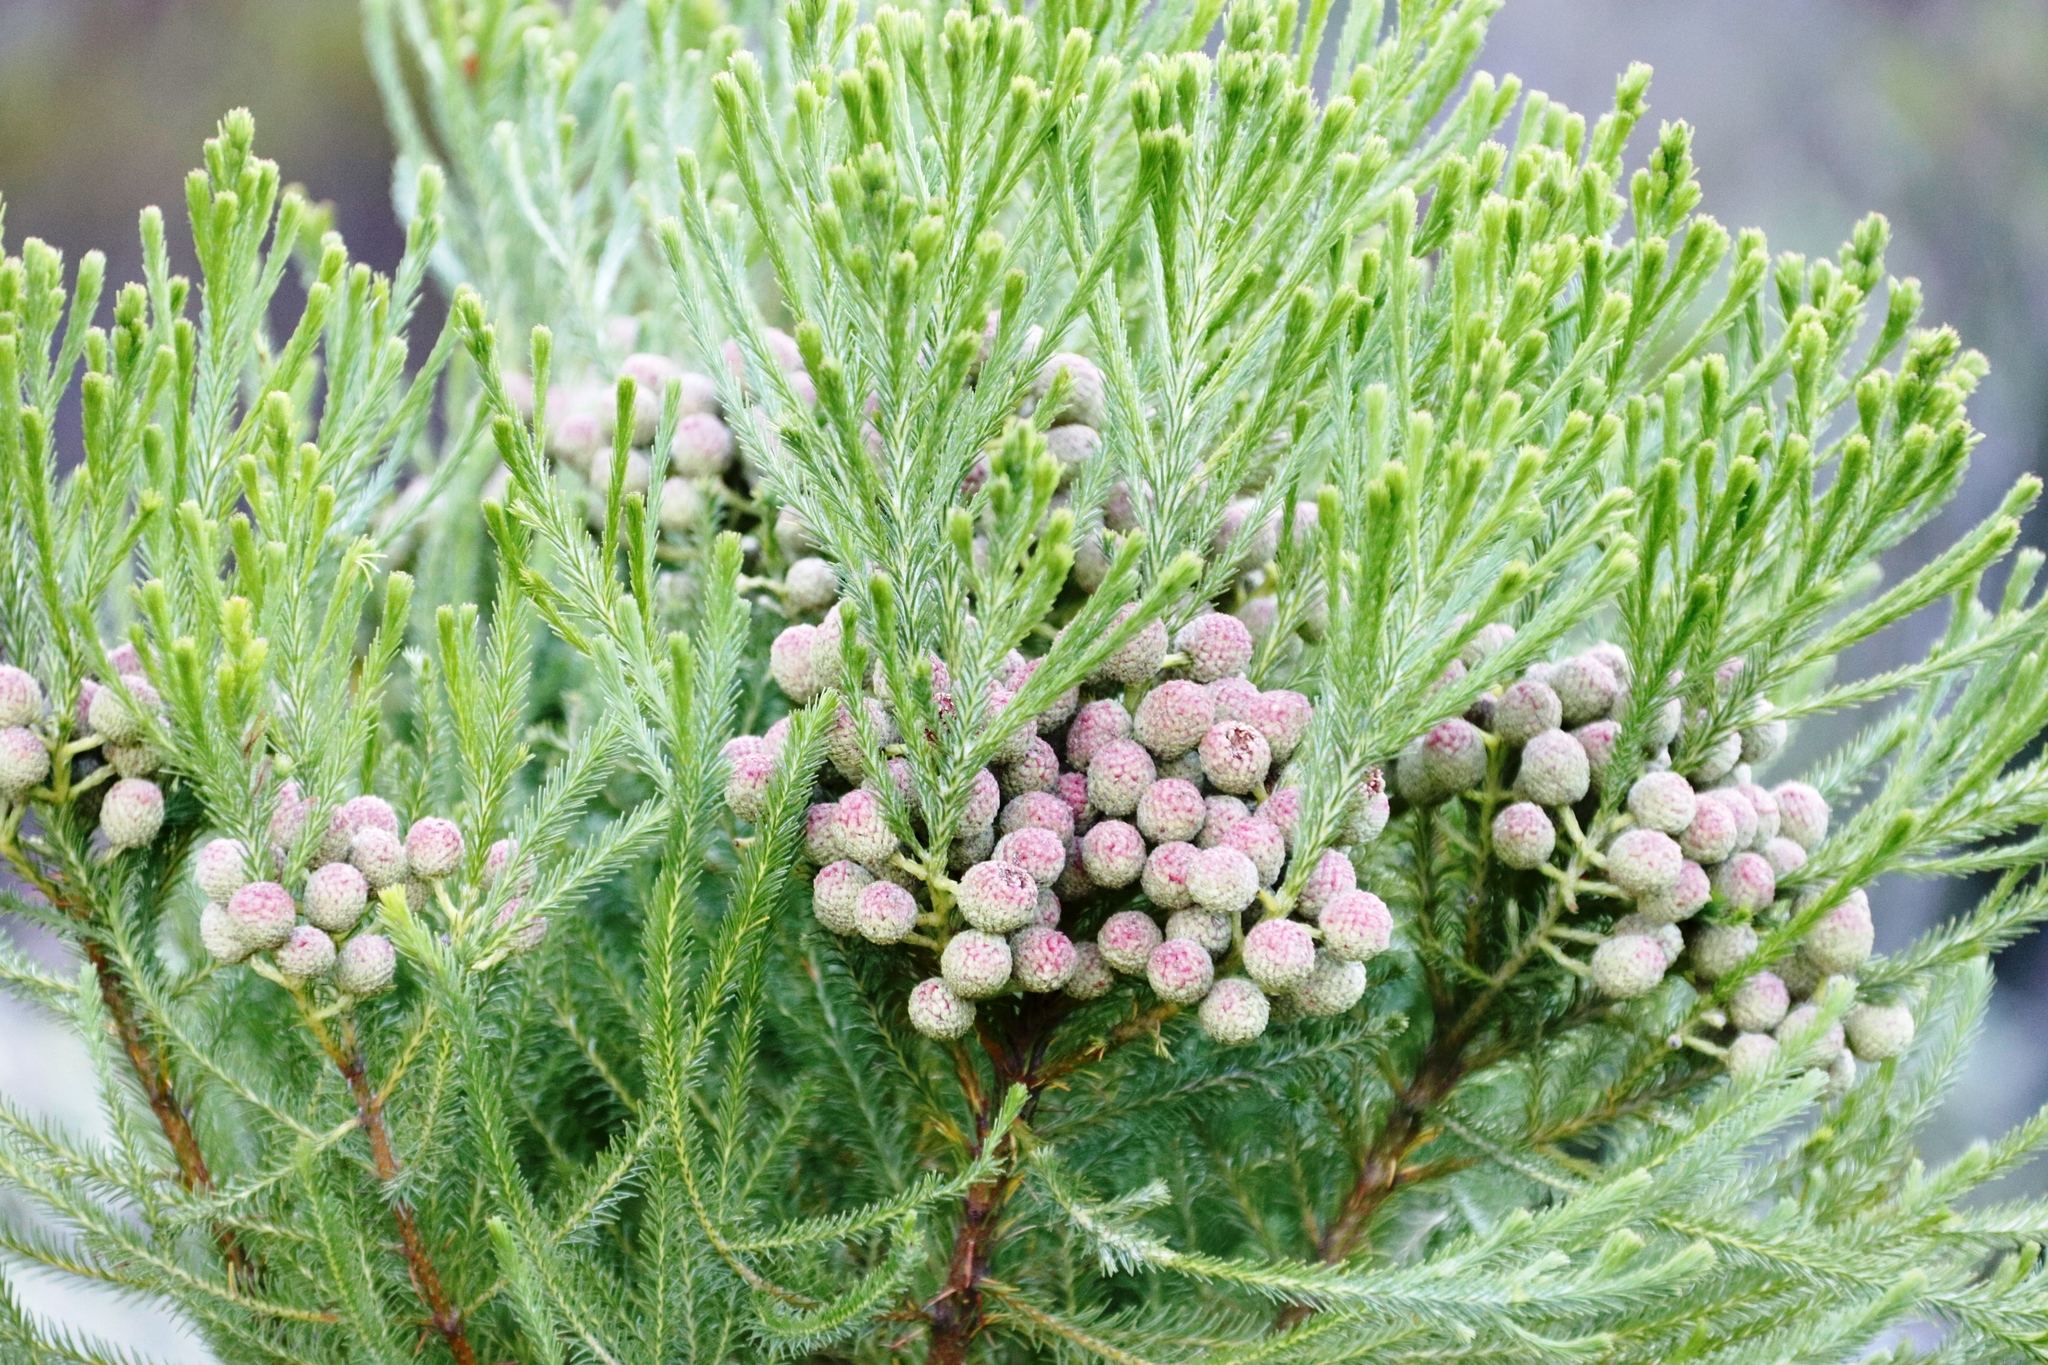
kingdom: Plantae
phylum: Tracheophyta
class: Magnoliopsida
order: Bruniales
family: Bruniaceae
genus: Berzelia
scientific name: Berzelia lanuginosa
